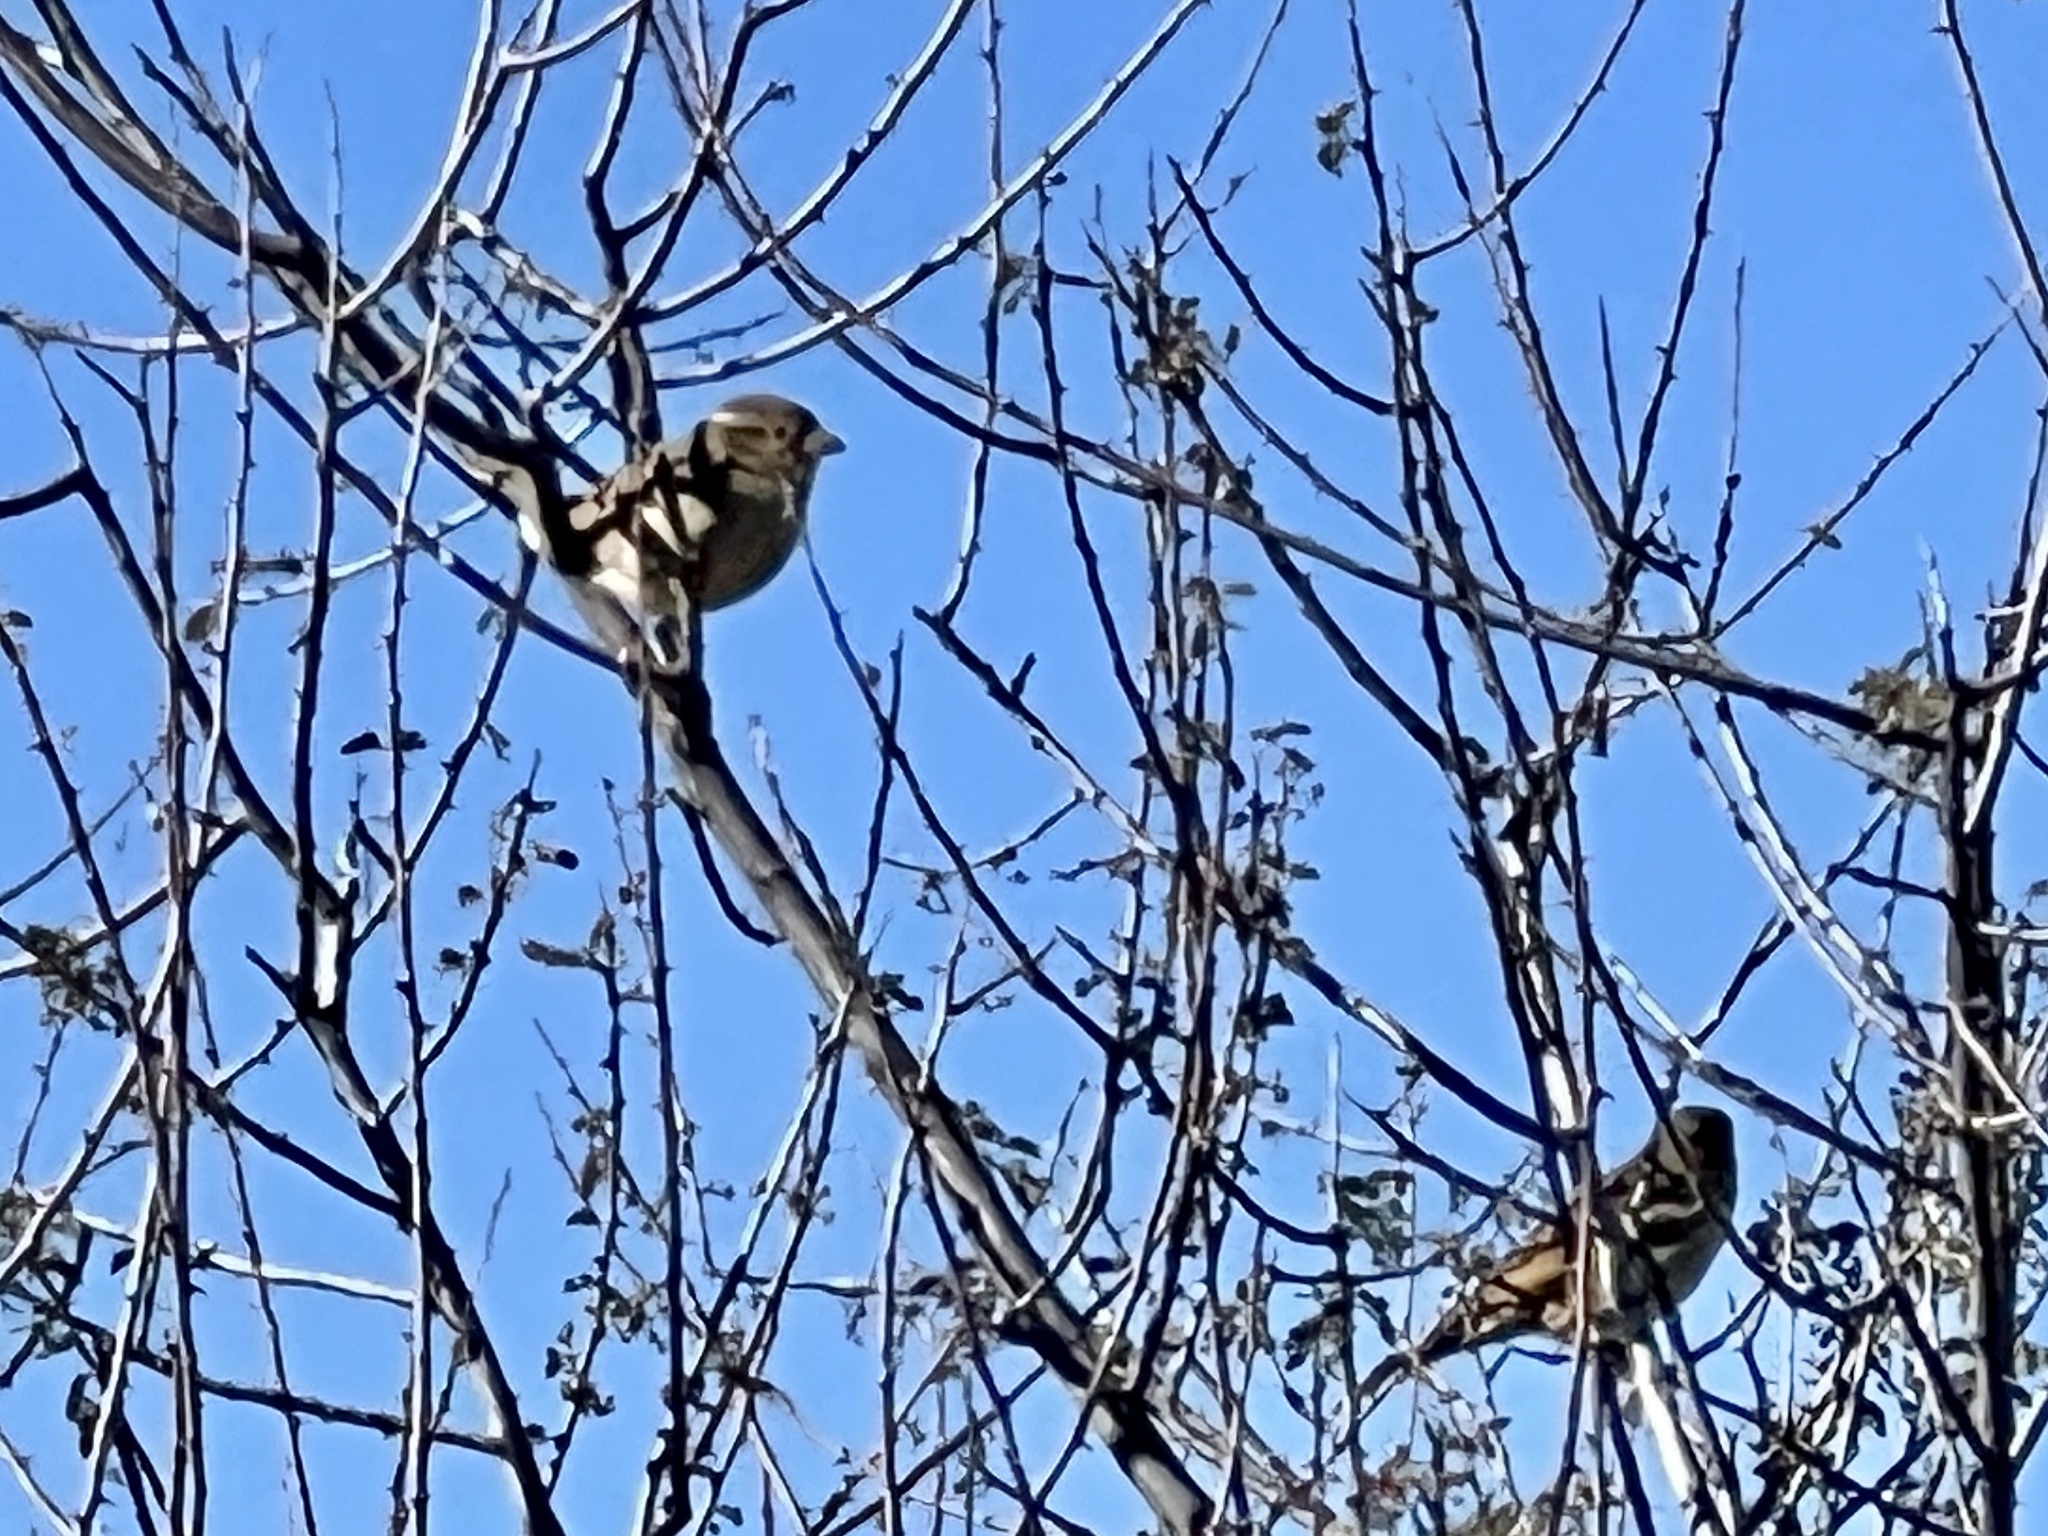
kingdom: Animalia
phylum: Chordata
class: Aves
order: Passeriformes
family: Passeridae
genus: Passer
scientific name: Passer domesticus
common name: House sparrow
